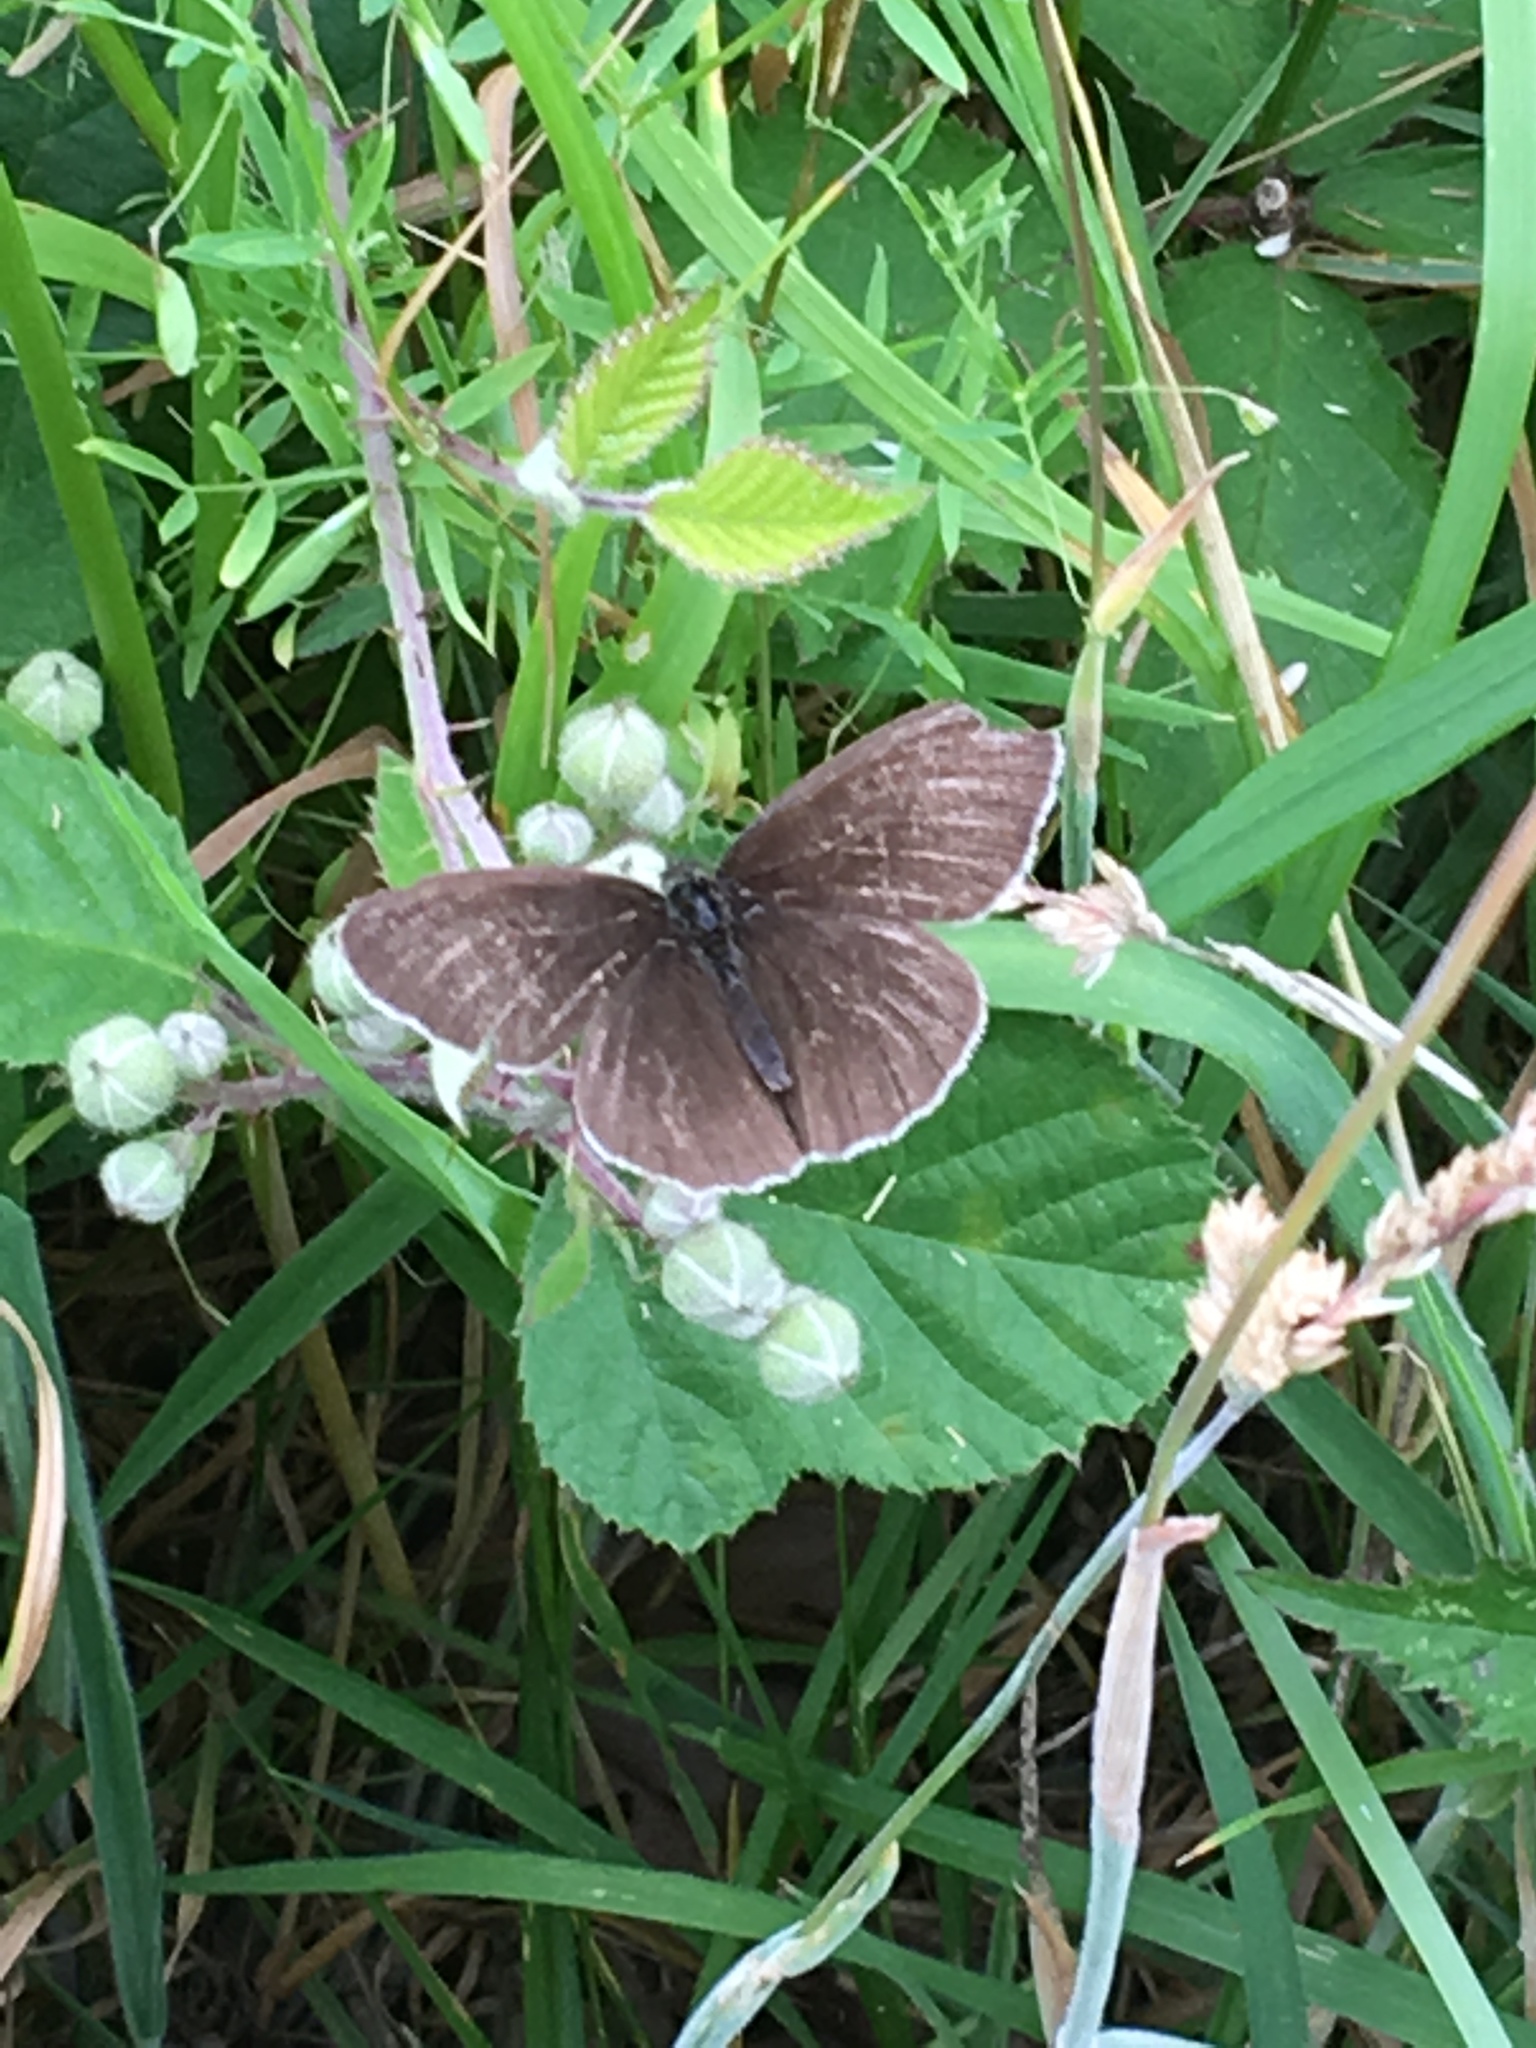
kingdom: Animalia
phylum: Arthropoda
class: Insecta
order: Lepidoptera
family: Nymphalidae
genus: Aphantopus
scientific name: Aphantopus hyperantus
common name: Ringlet
